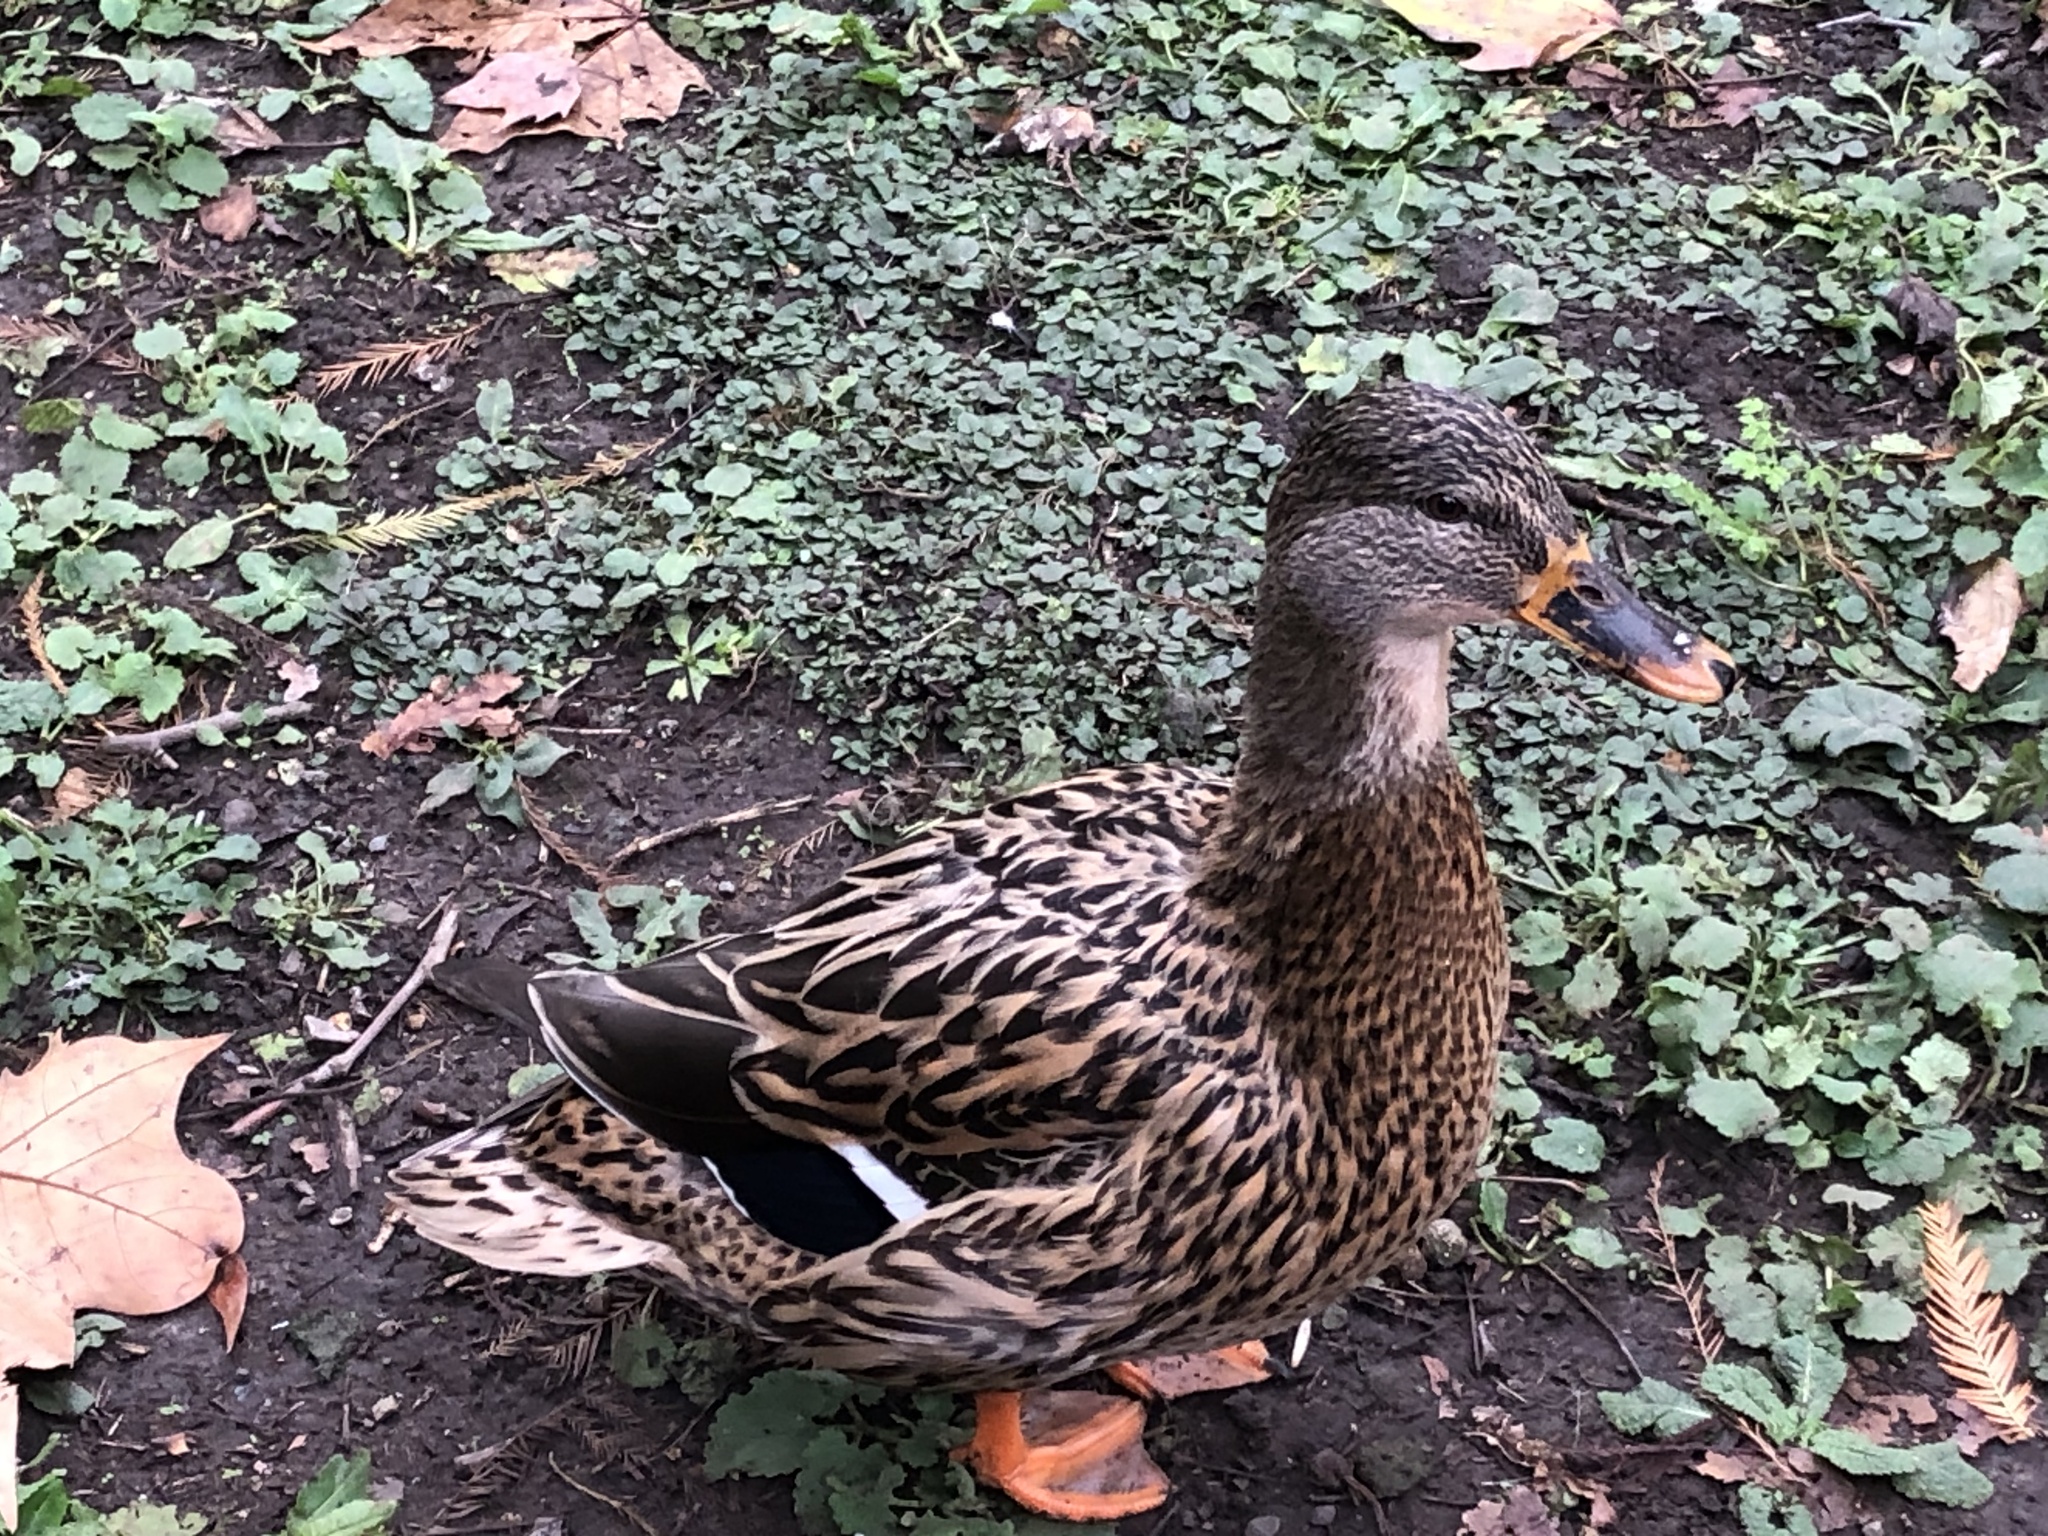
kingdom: Animalia
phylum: Chordata
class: Aves
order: Anseriformes
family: Anatidae
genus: Anas
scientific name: Anas platyrhynchos
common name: Mallard
